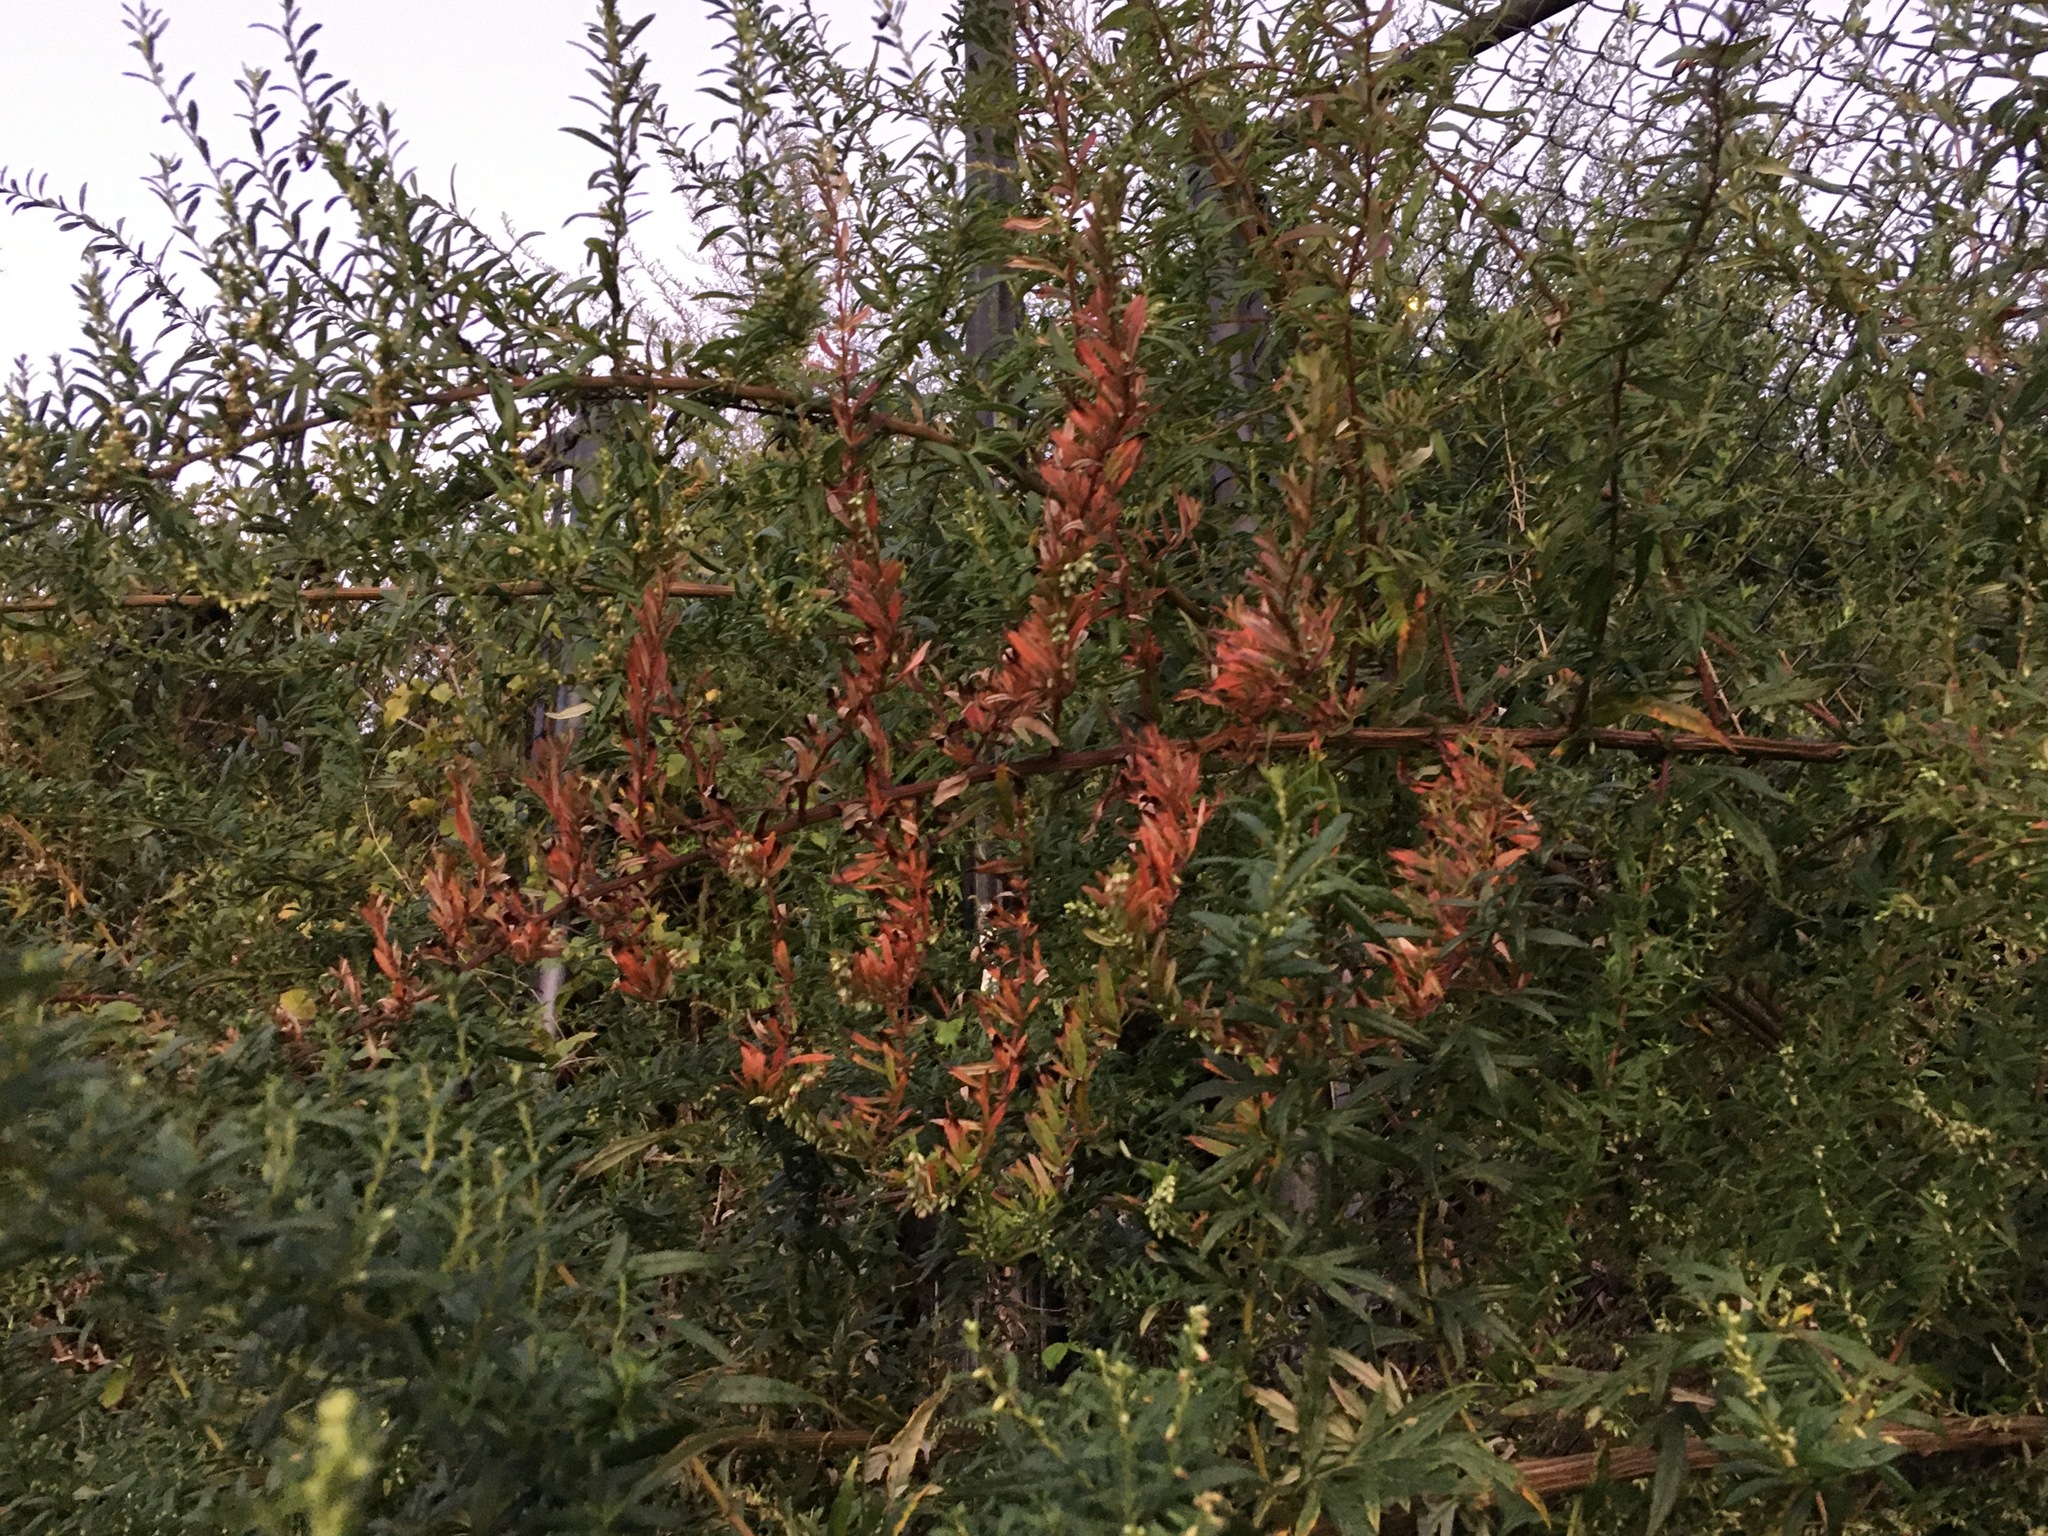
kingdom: Plantae
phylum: Tracheophyta
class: Magnoliopsida
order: Asterales
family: Asteraceae
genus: Artemisia
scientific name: Artemisia vulgaris
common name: Mugwort
